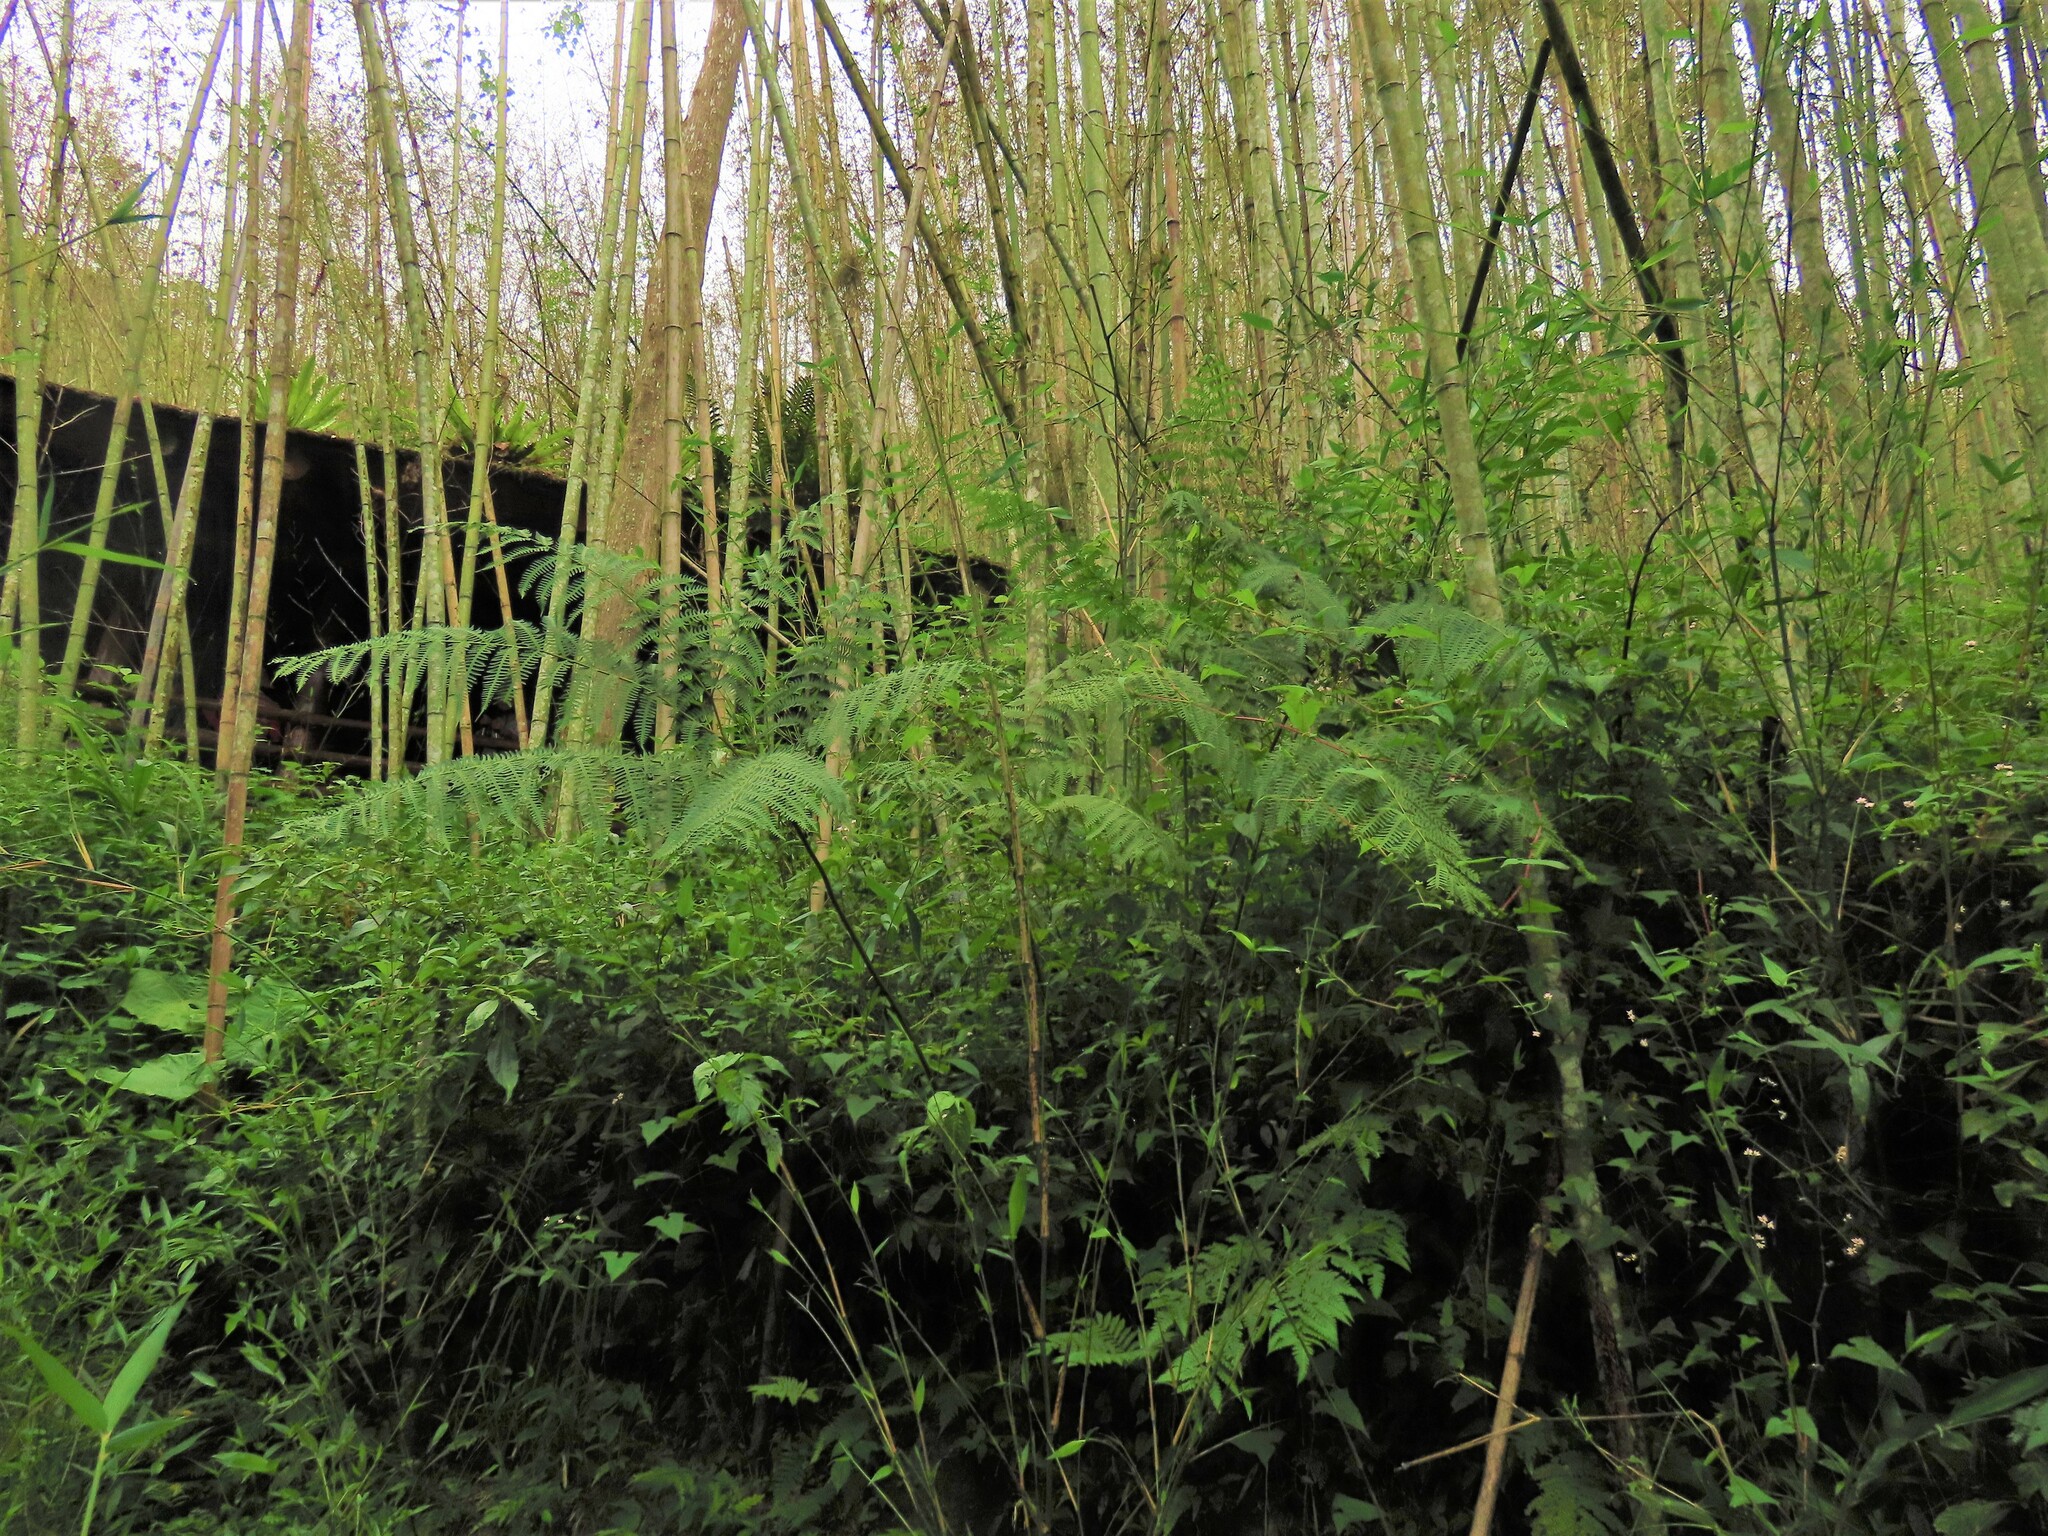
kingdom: Plantae
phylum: Tracheophyta
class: Polypodiopsida
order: Polypodiales
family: Pteridaceae
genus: Pteris
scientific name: Pteris wallichiana
